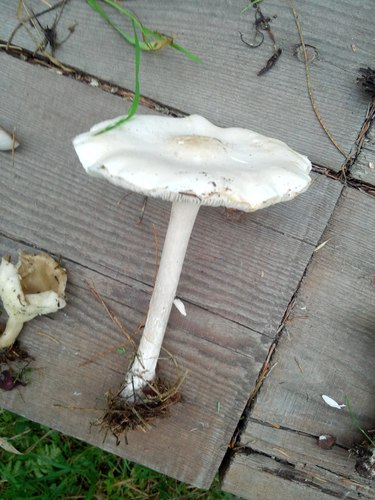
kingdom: Fungi
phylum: Basidiomycota
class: Agaricomycetes
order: Agaricales
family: Tricholomataceae
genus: Melanoleuca
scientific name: Melanoleuca strictipes
